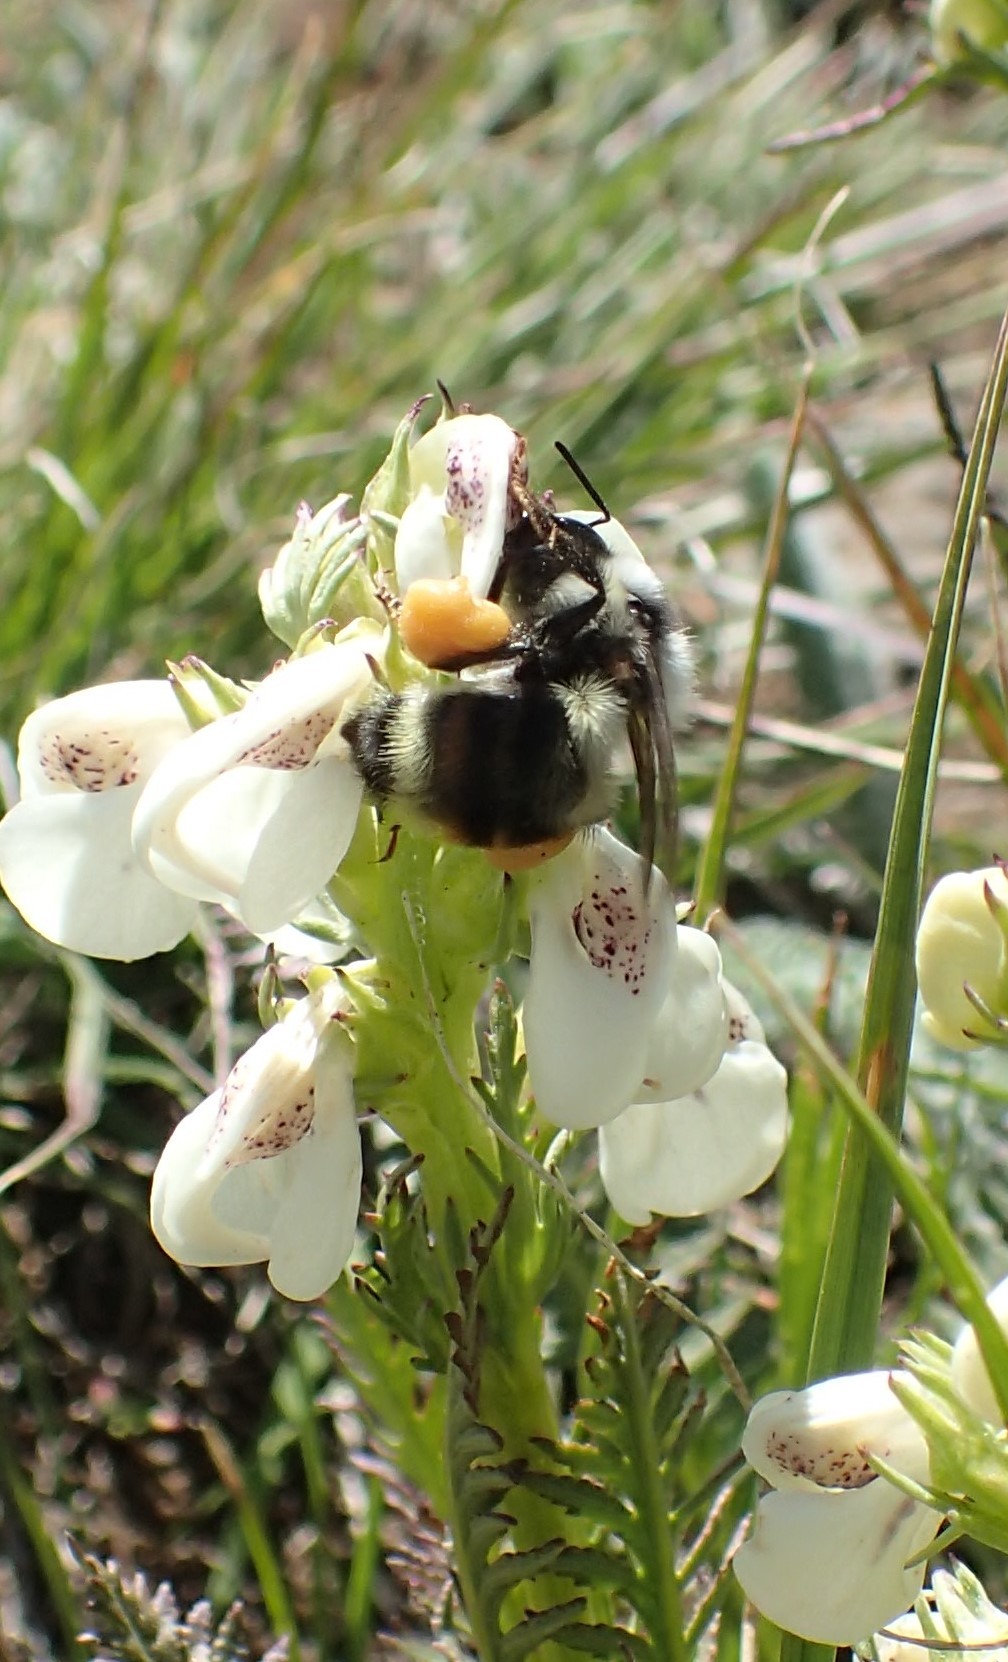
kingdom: Animalia
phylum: Arthropoda
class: Insecta
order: Hymenoptera
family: Apidae
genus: Bombus
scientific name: Bombus vancouverensis
